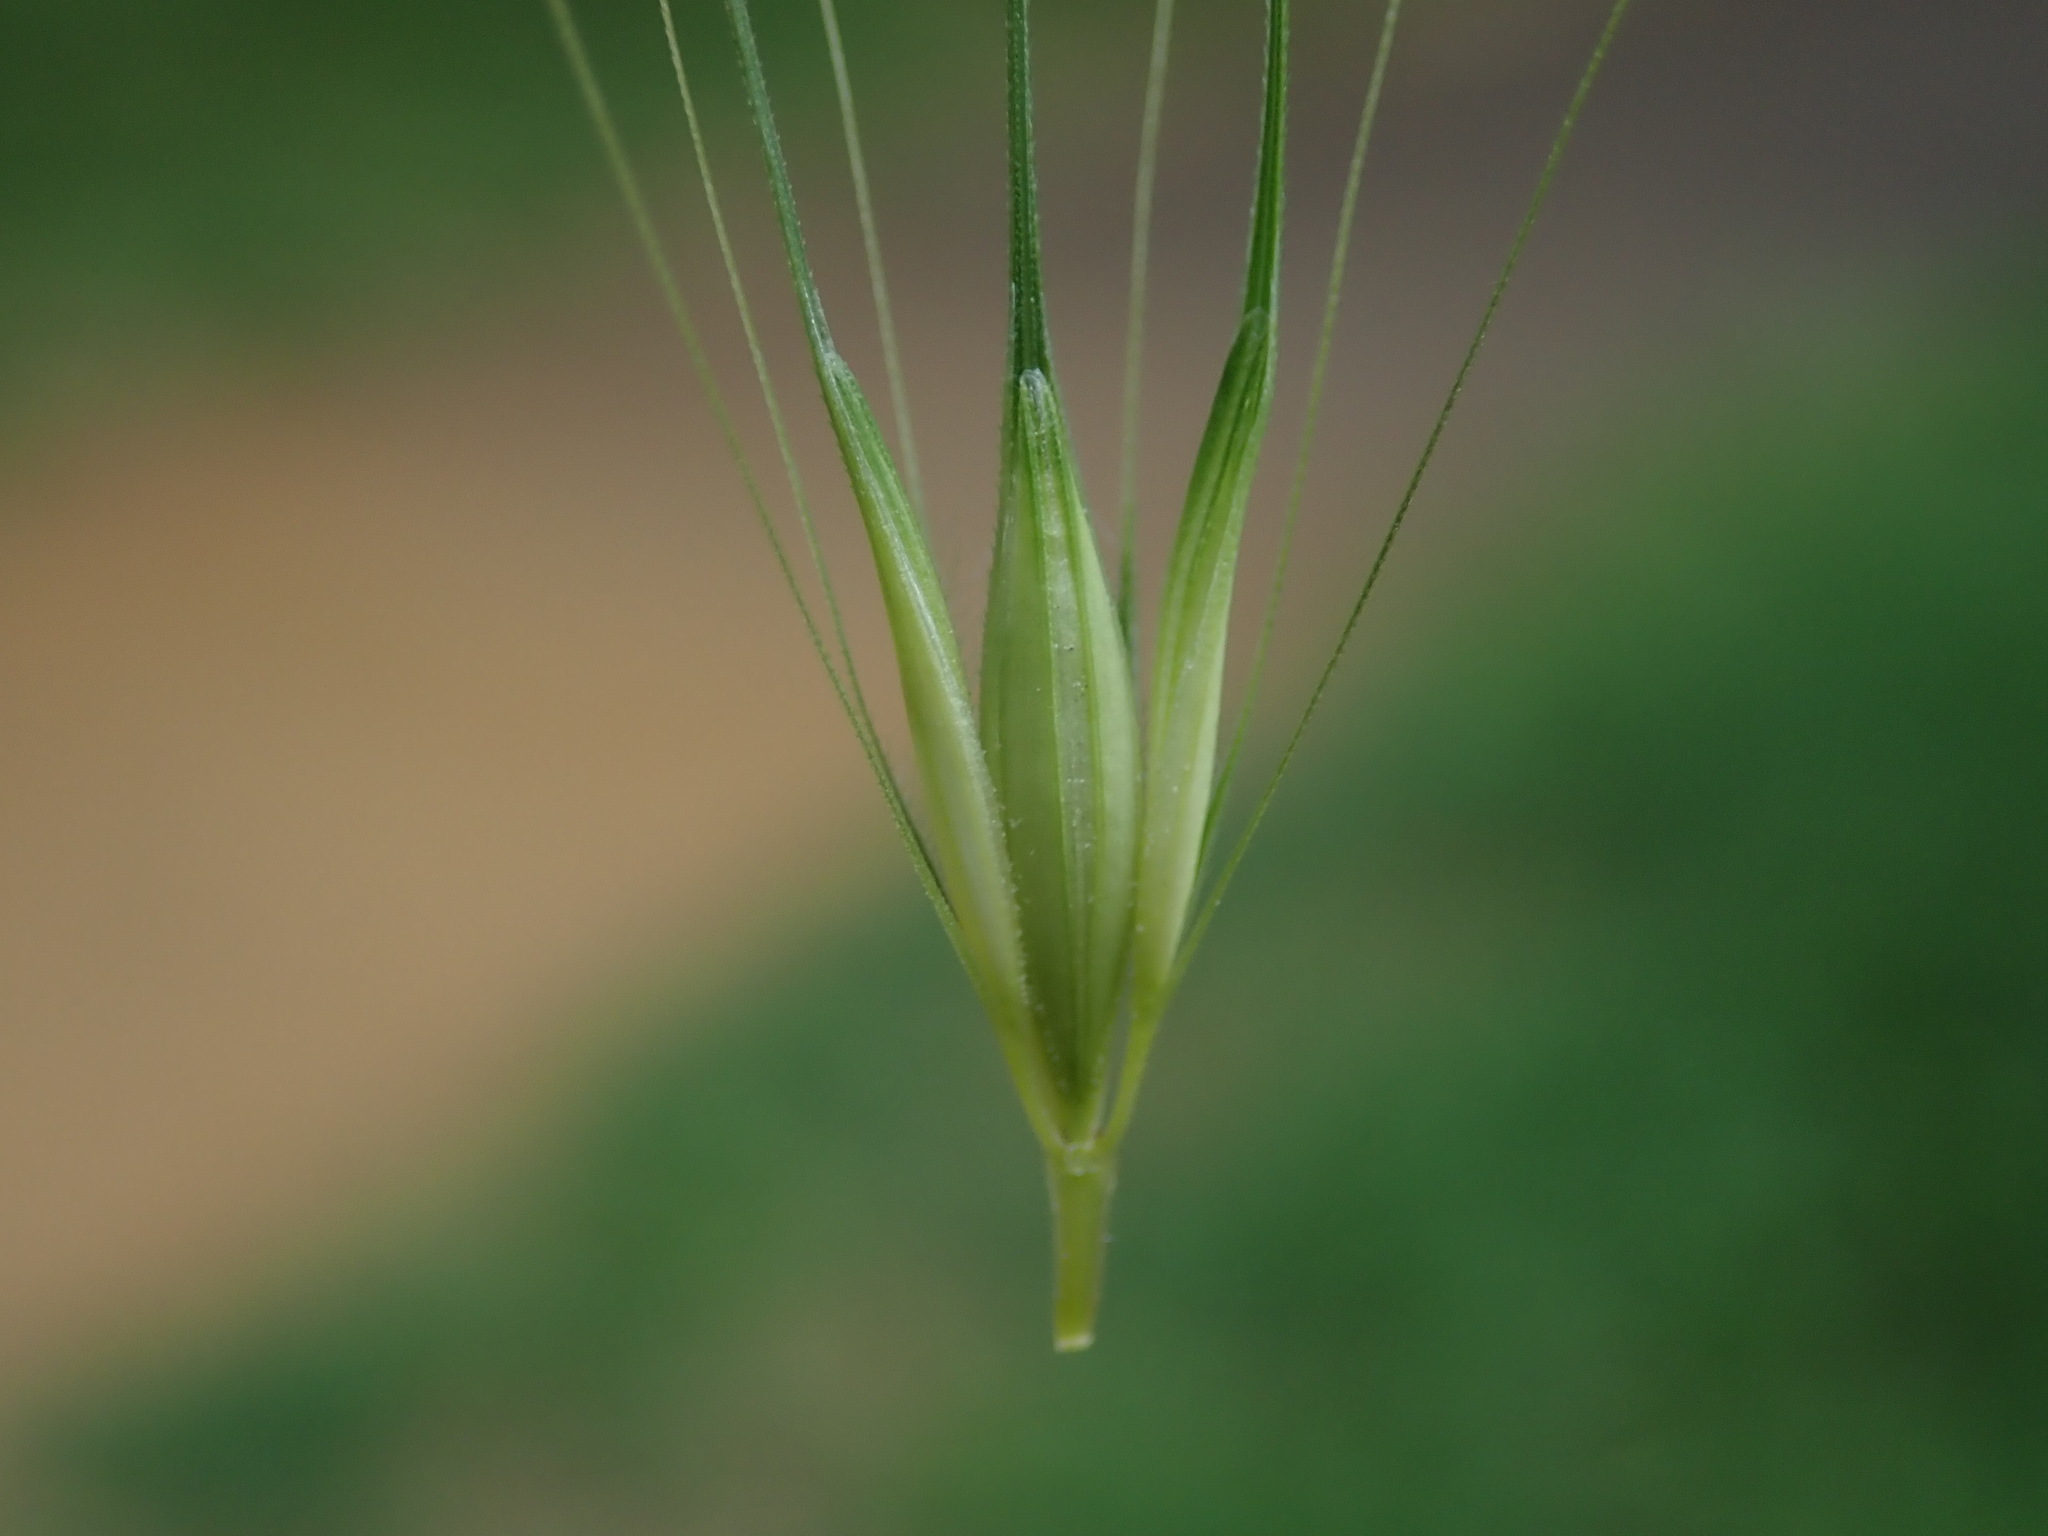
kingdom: Plantae
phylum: Tracheophyta
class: Liliopsida
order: Poales
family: Poaceae
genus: Hordeum
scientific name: Hordeum murinum
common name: Wall barley
